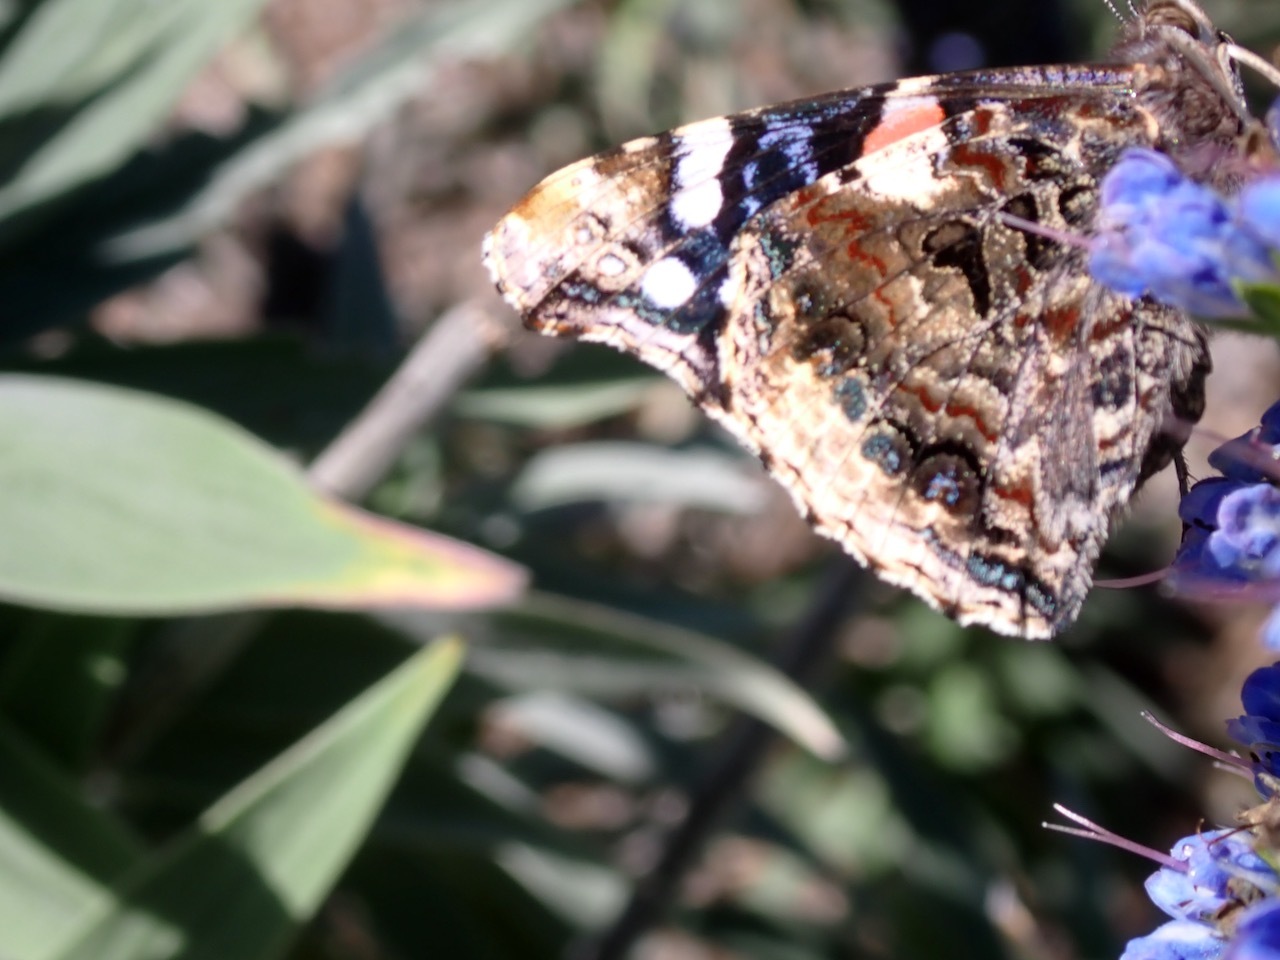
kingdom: Animalia
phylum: Arthropoda
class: Insecta
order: Lepidoptera
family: Nymphalidae
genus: Vanessa
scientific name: Vanessa atalanta
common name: Red admiral
